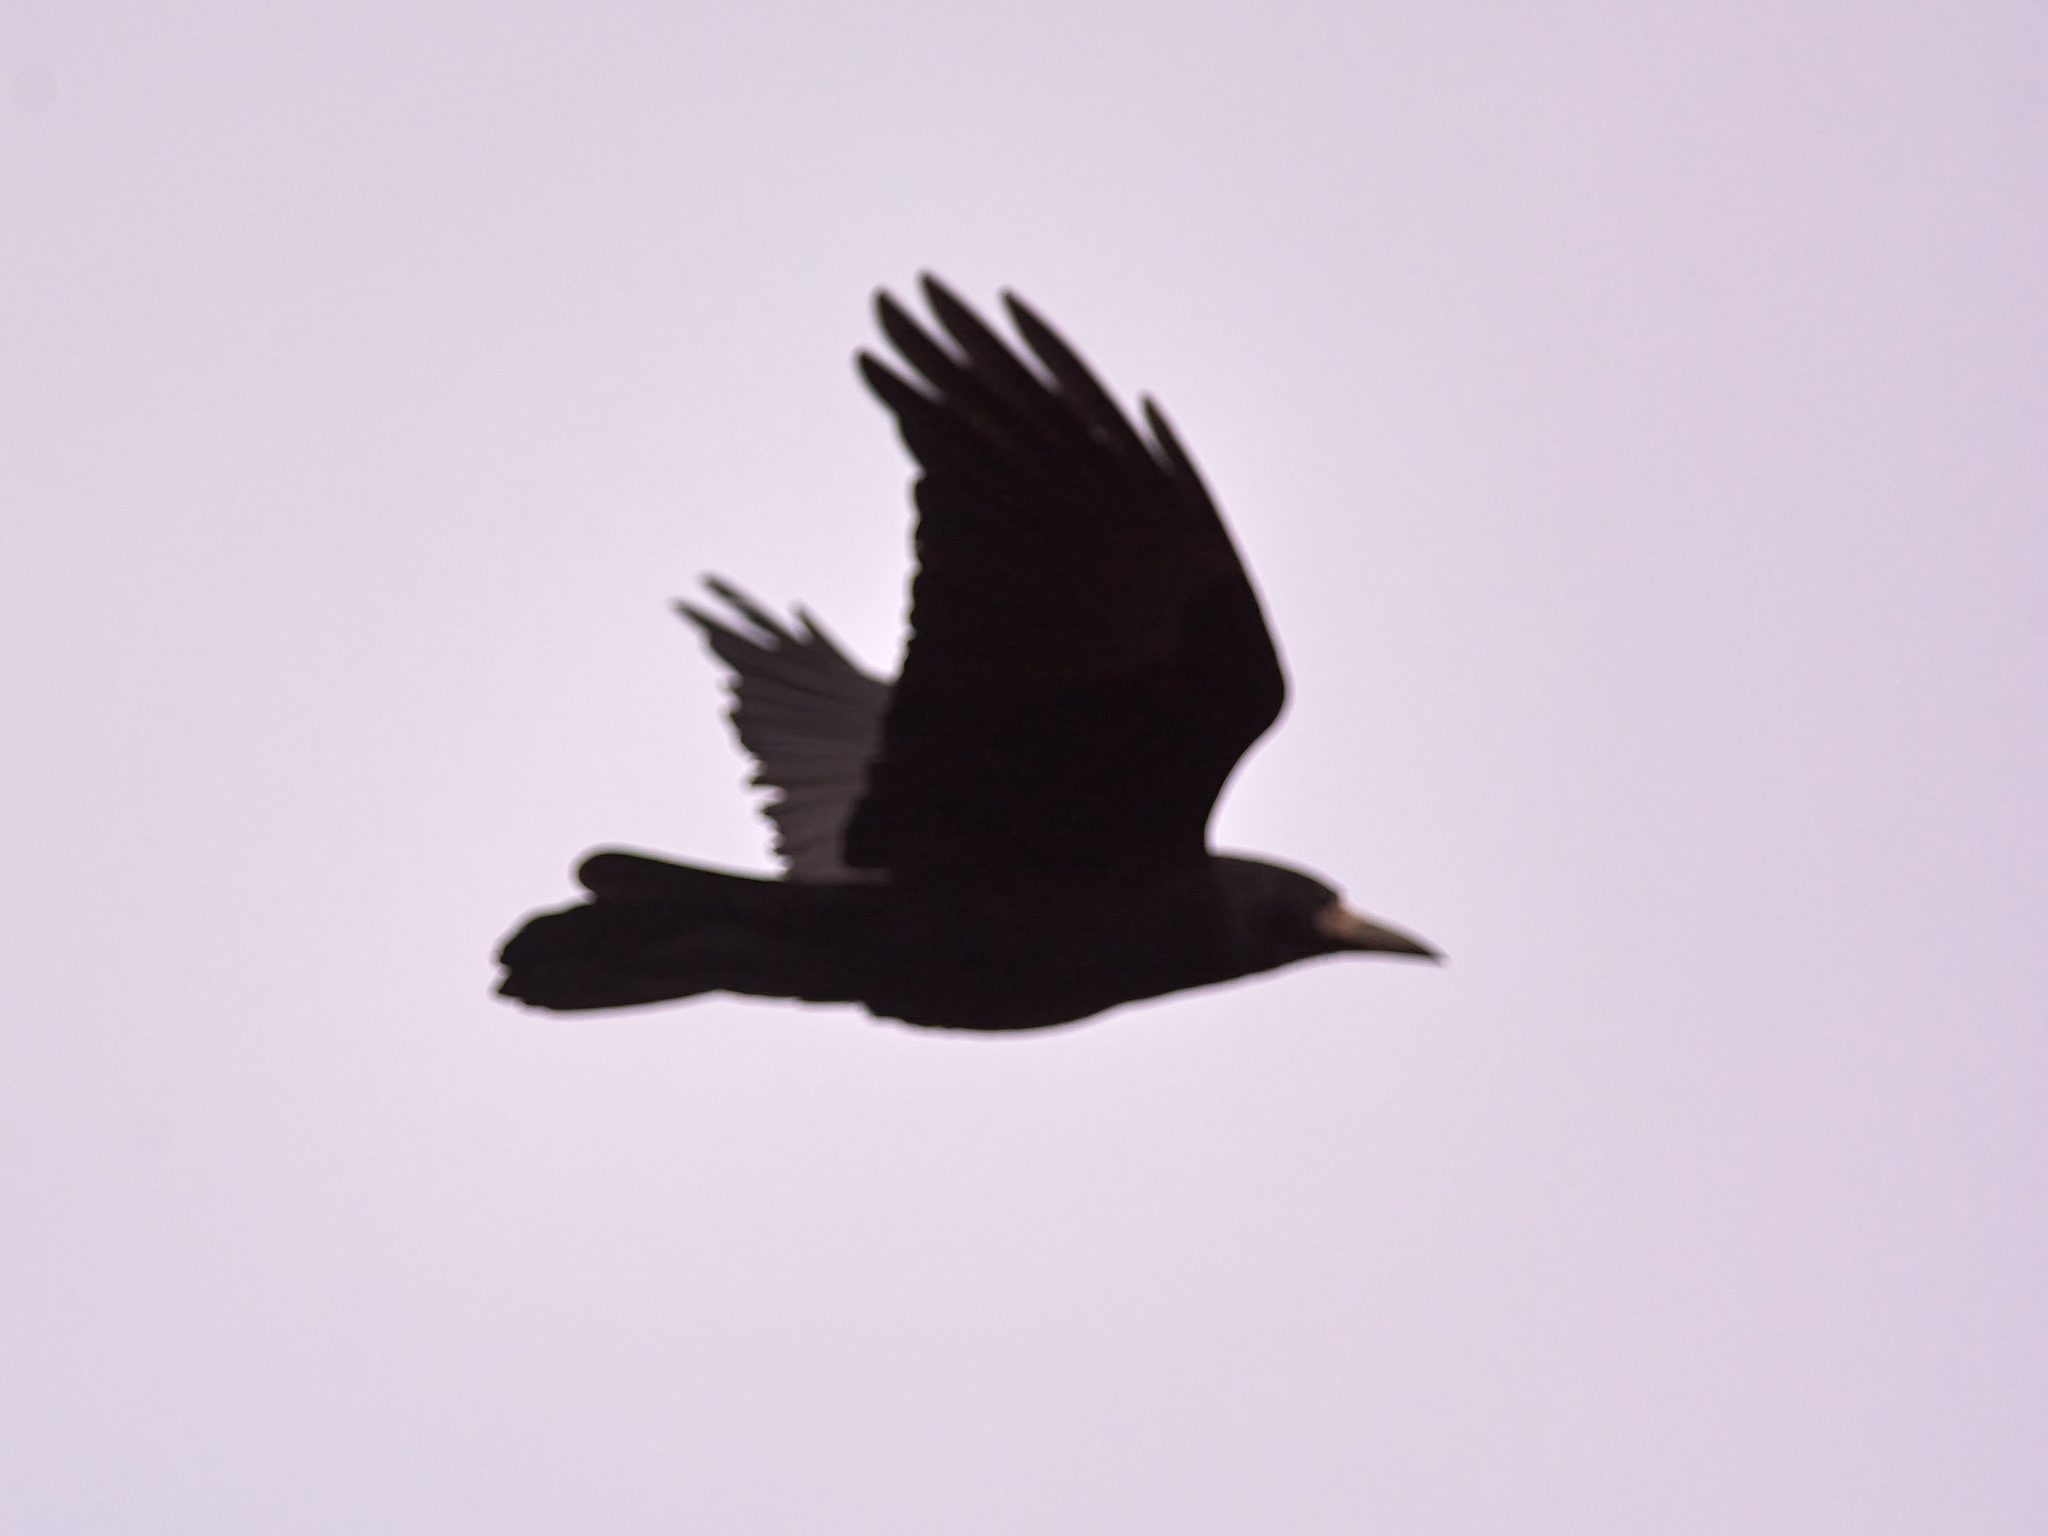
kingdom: Animalia
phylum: Chordata
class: Aves
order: Passeriformes
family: Corvidae
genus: Corvus
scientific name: Corvus frugilegus
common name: Rook
